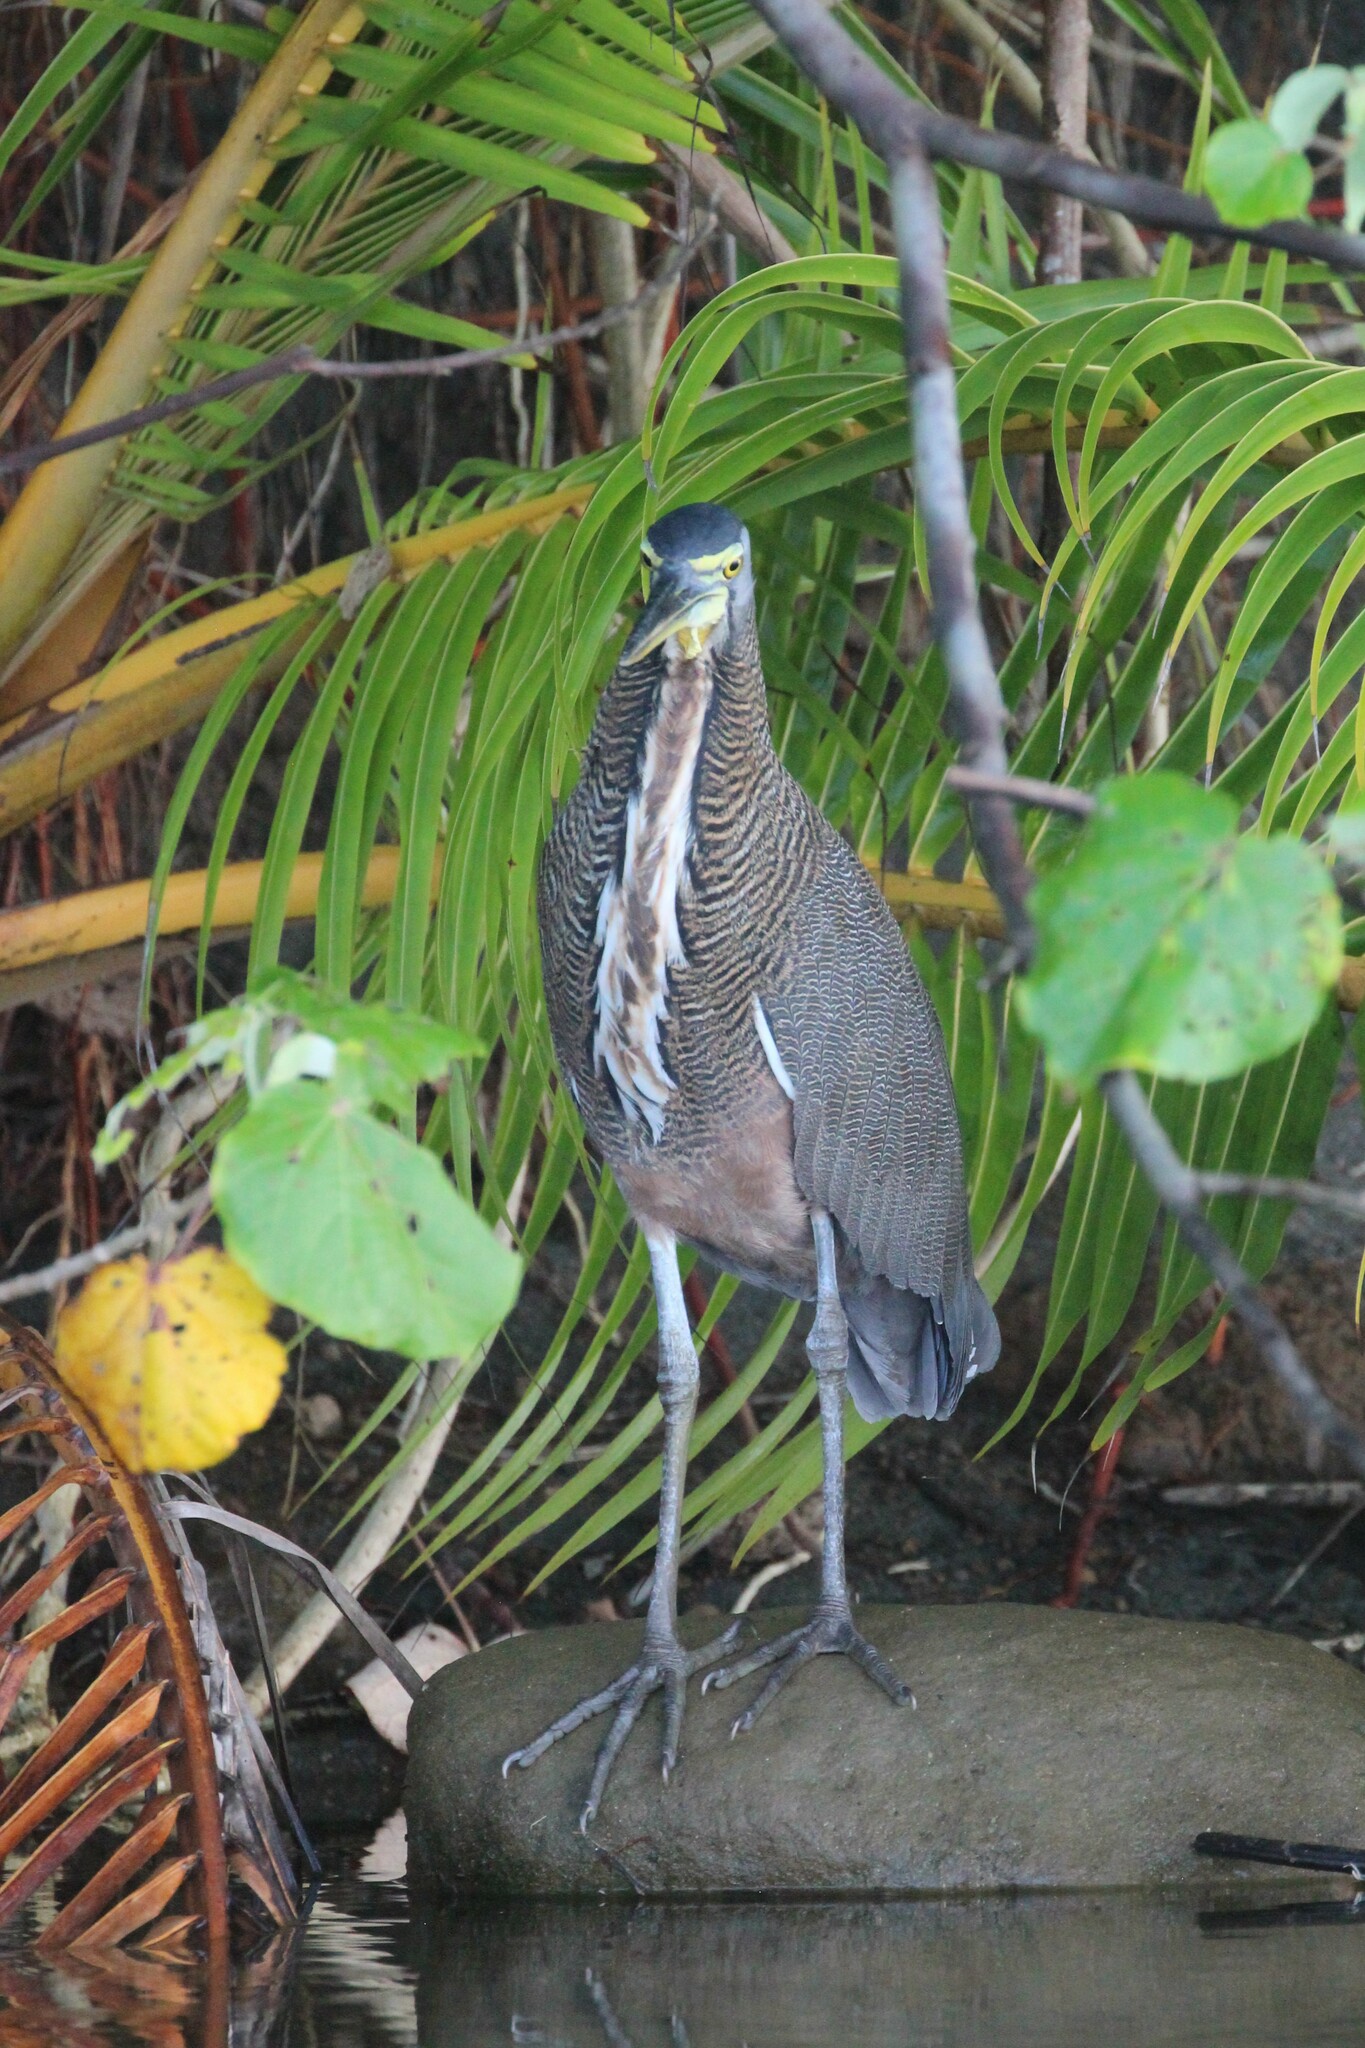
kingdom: Animalia
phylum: Chordata
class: Aves
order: Pelecaniformes
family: Ardeidae
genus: Tigrisoma
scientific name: Tigrisoma mexicanum
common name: Bare-throated tiger-heron
